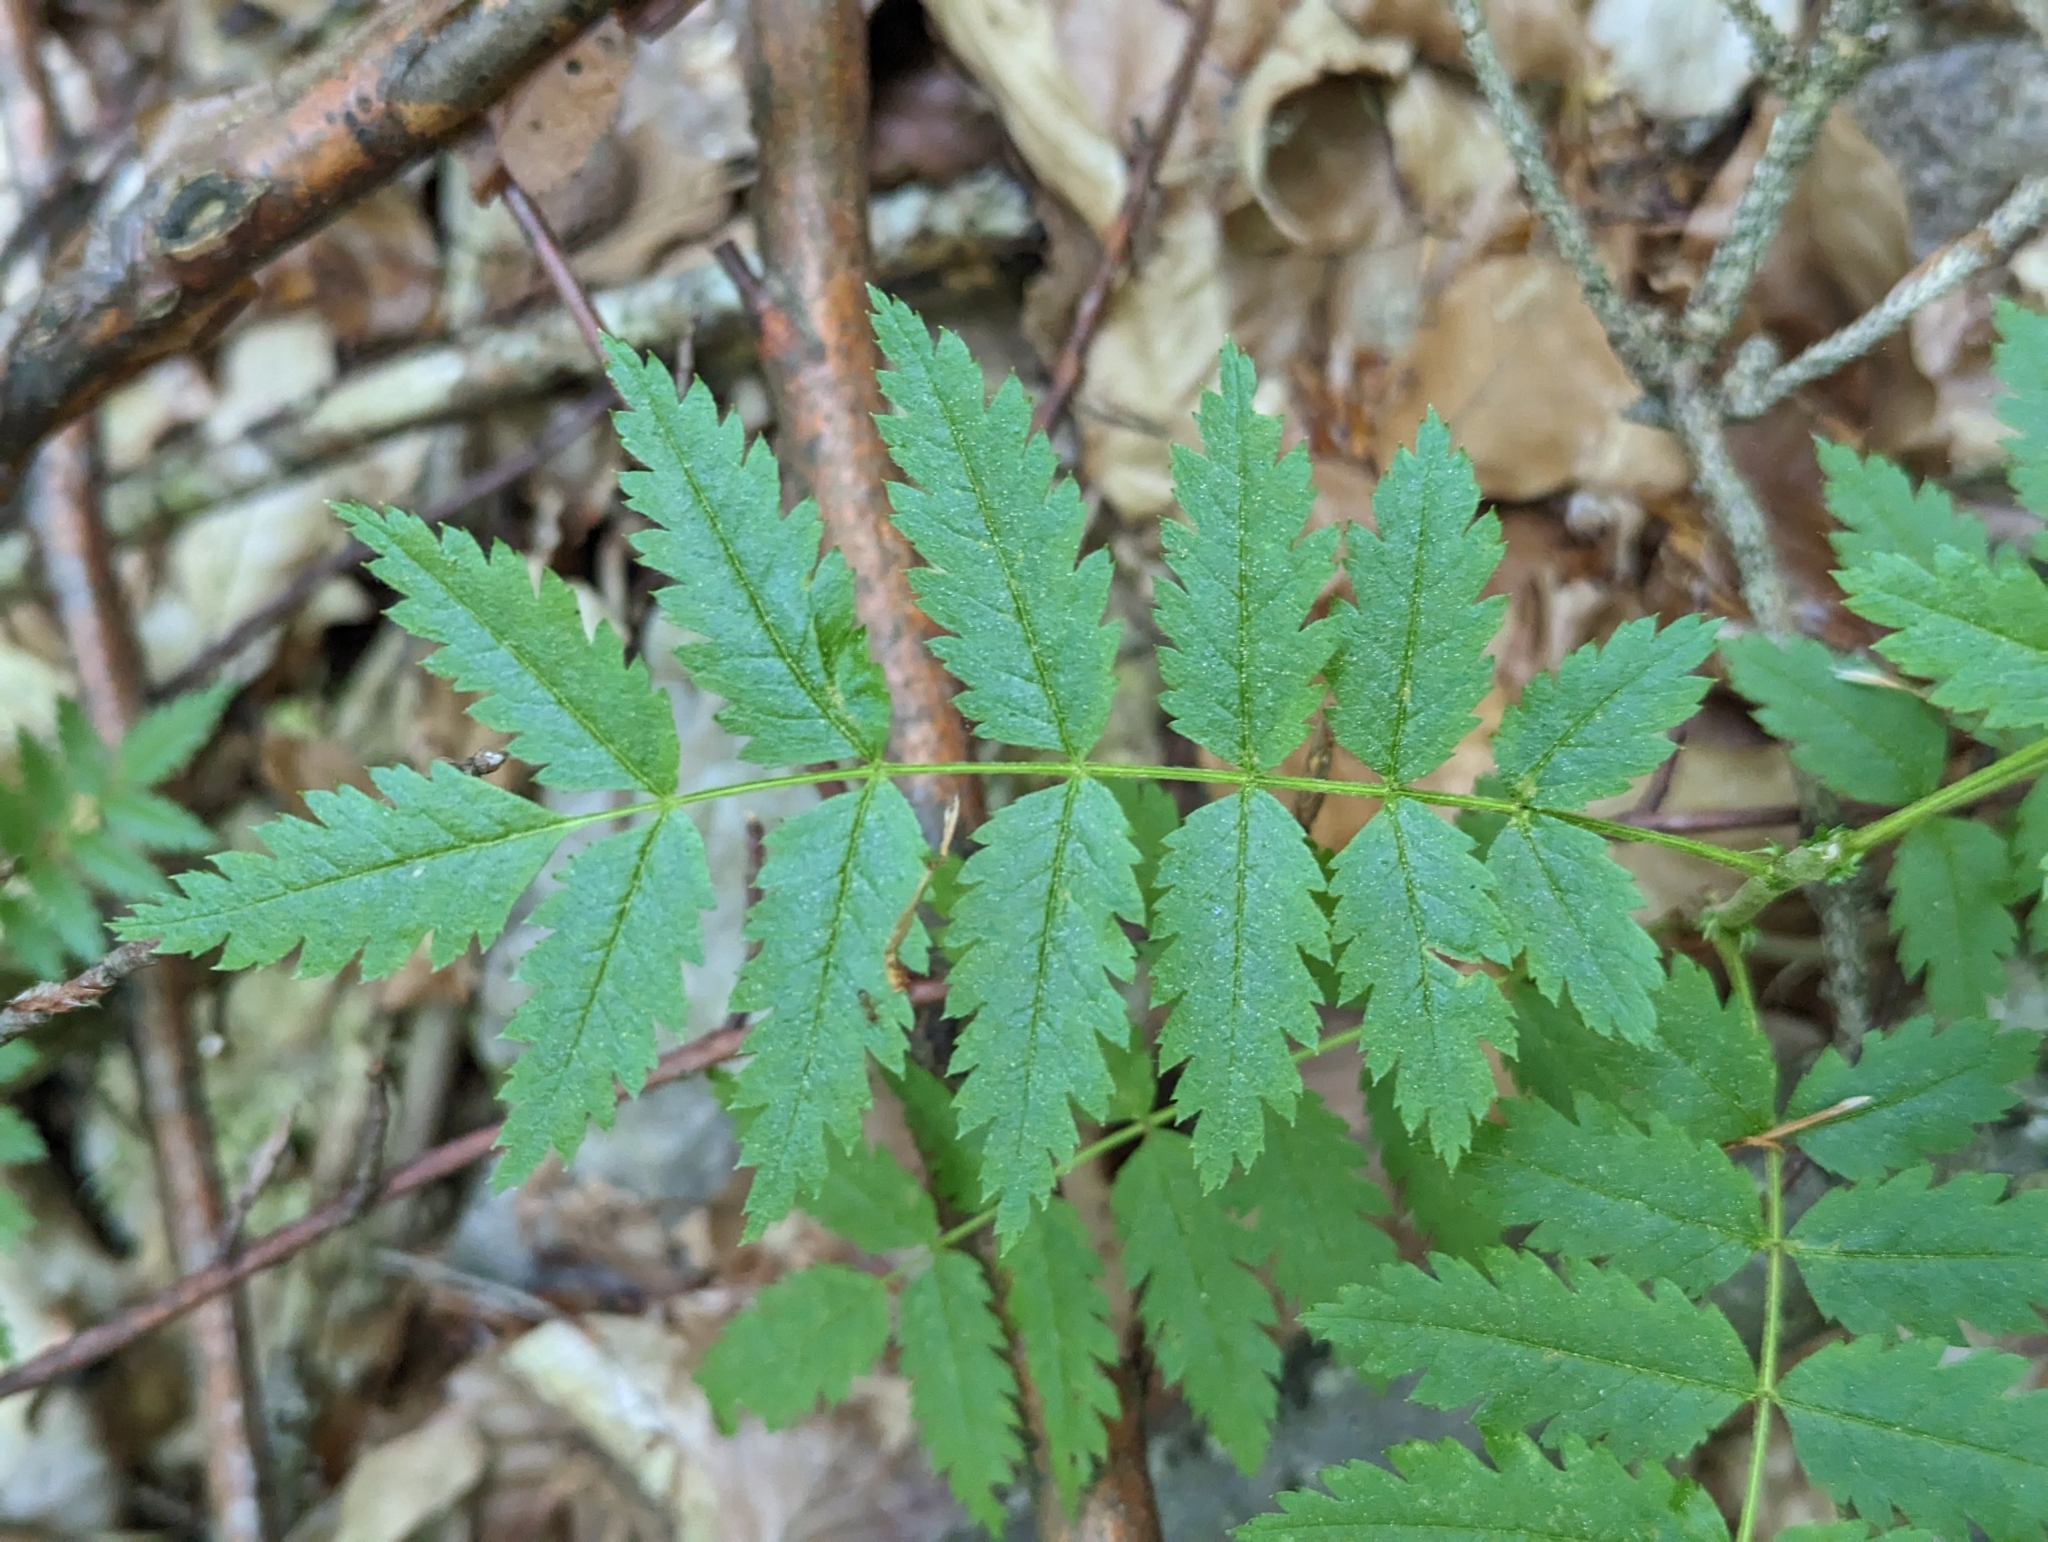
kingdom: Plantae
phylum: Tracheophyta
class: Magnoliopsida
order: Rosales
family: Rosaceae
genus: Sorbus
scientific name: Sorbus aucuparia
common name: Rowan
